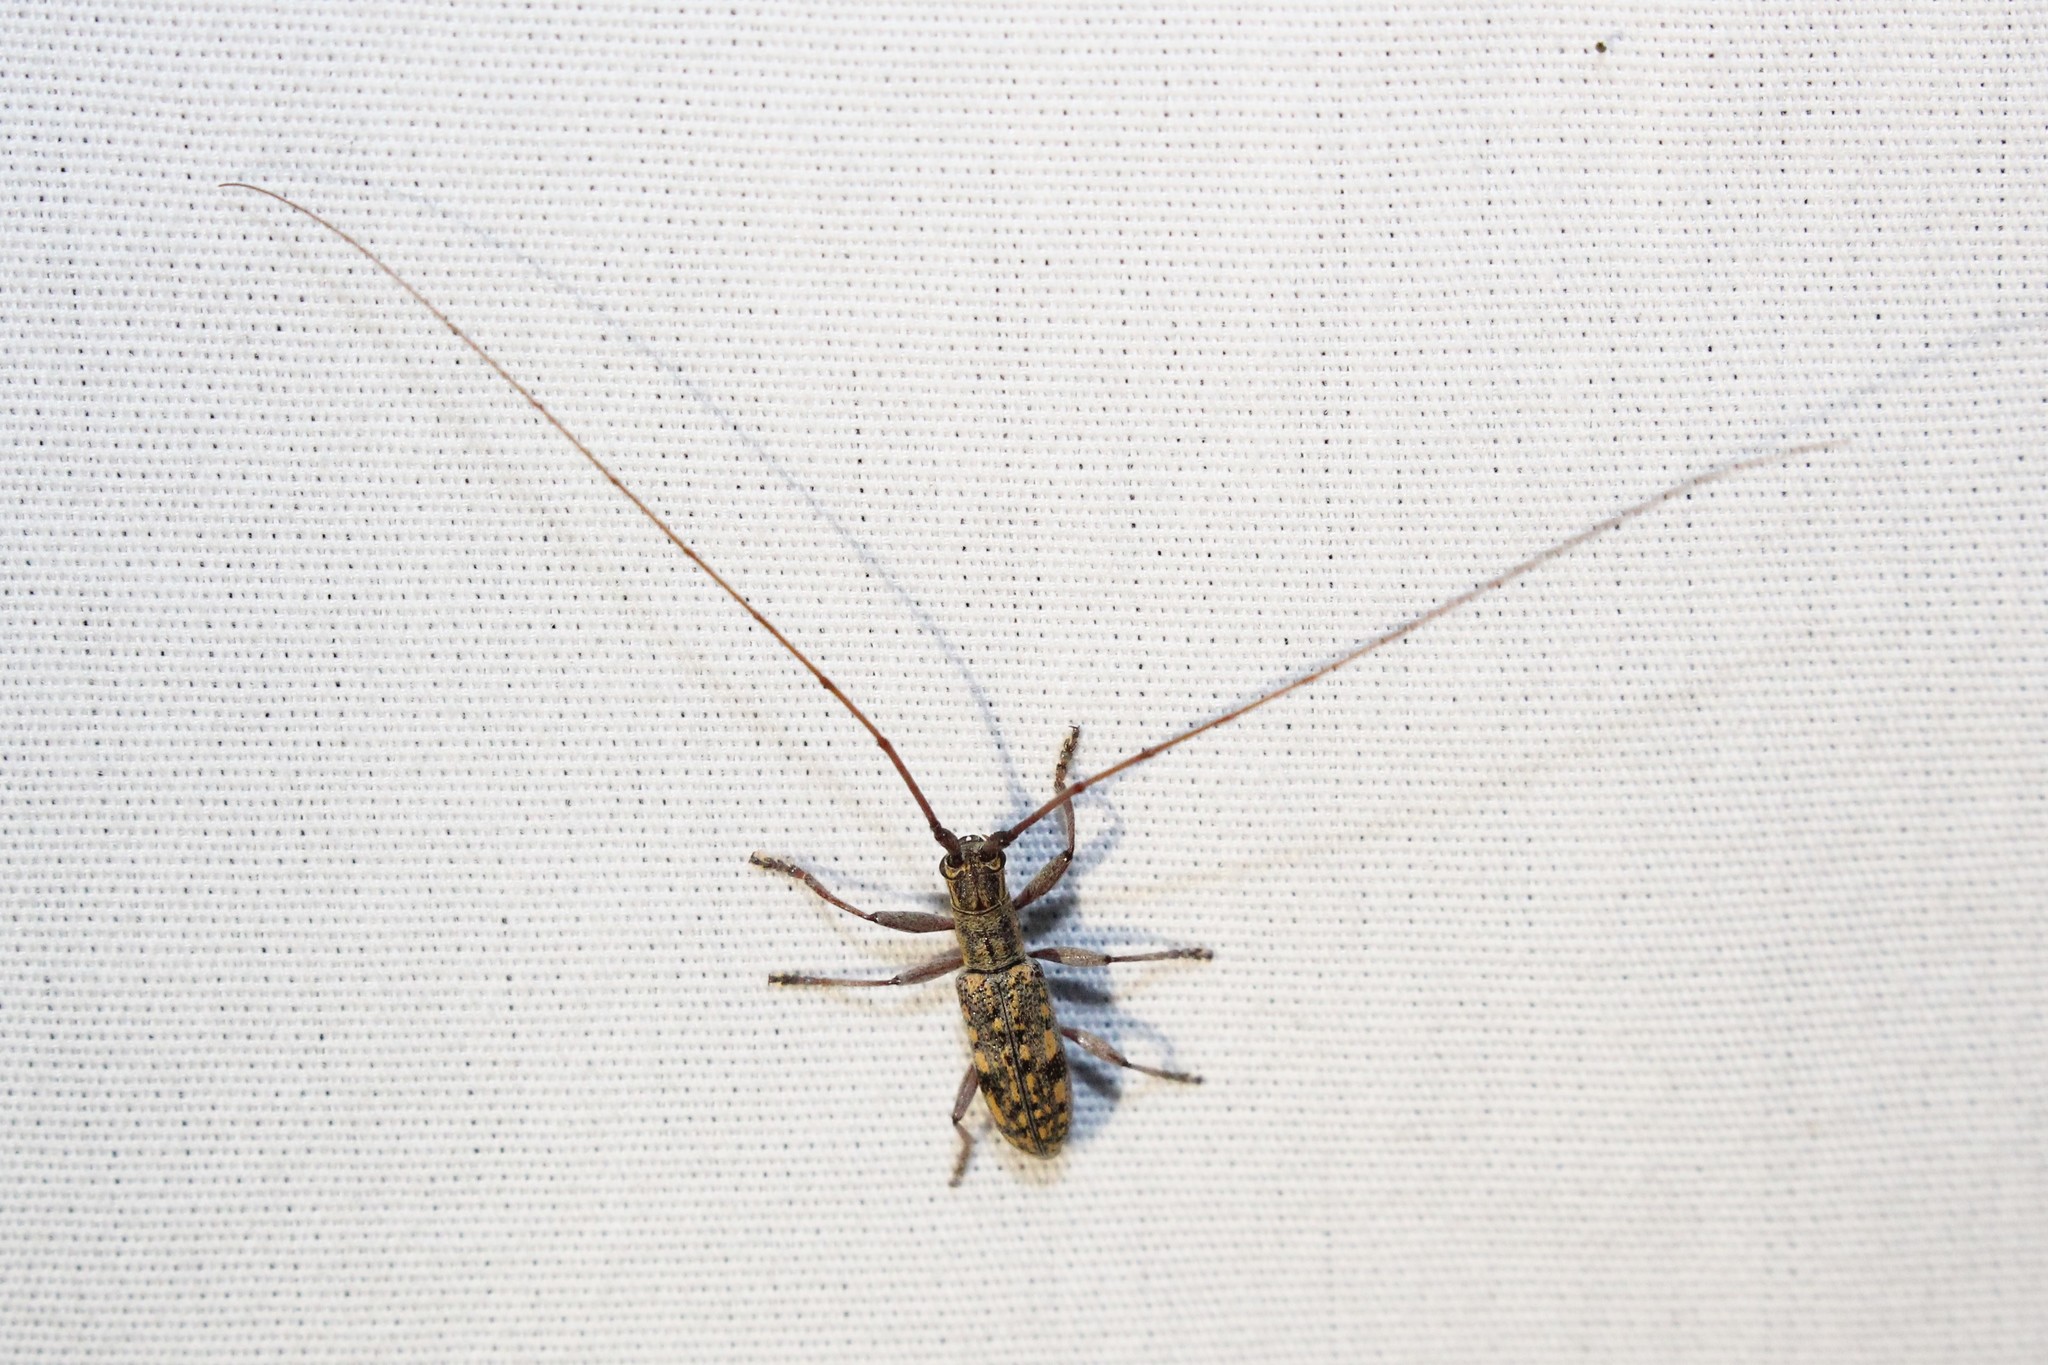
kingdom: Animalia
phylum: Arthropoda
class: Insecta
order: Coleoptera
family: Cerambycidae
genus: Dorcaschema
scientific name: Dorcaschema alternatum
